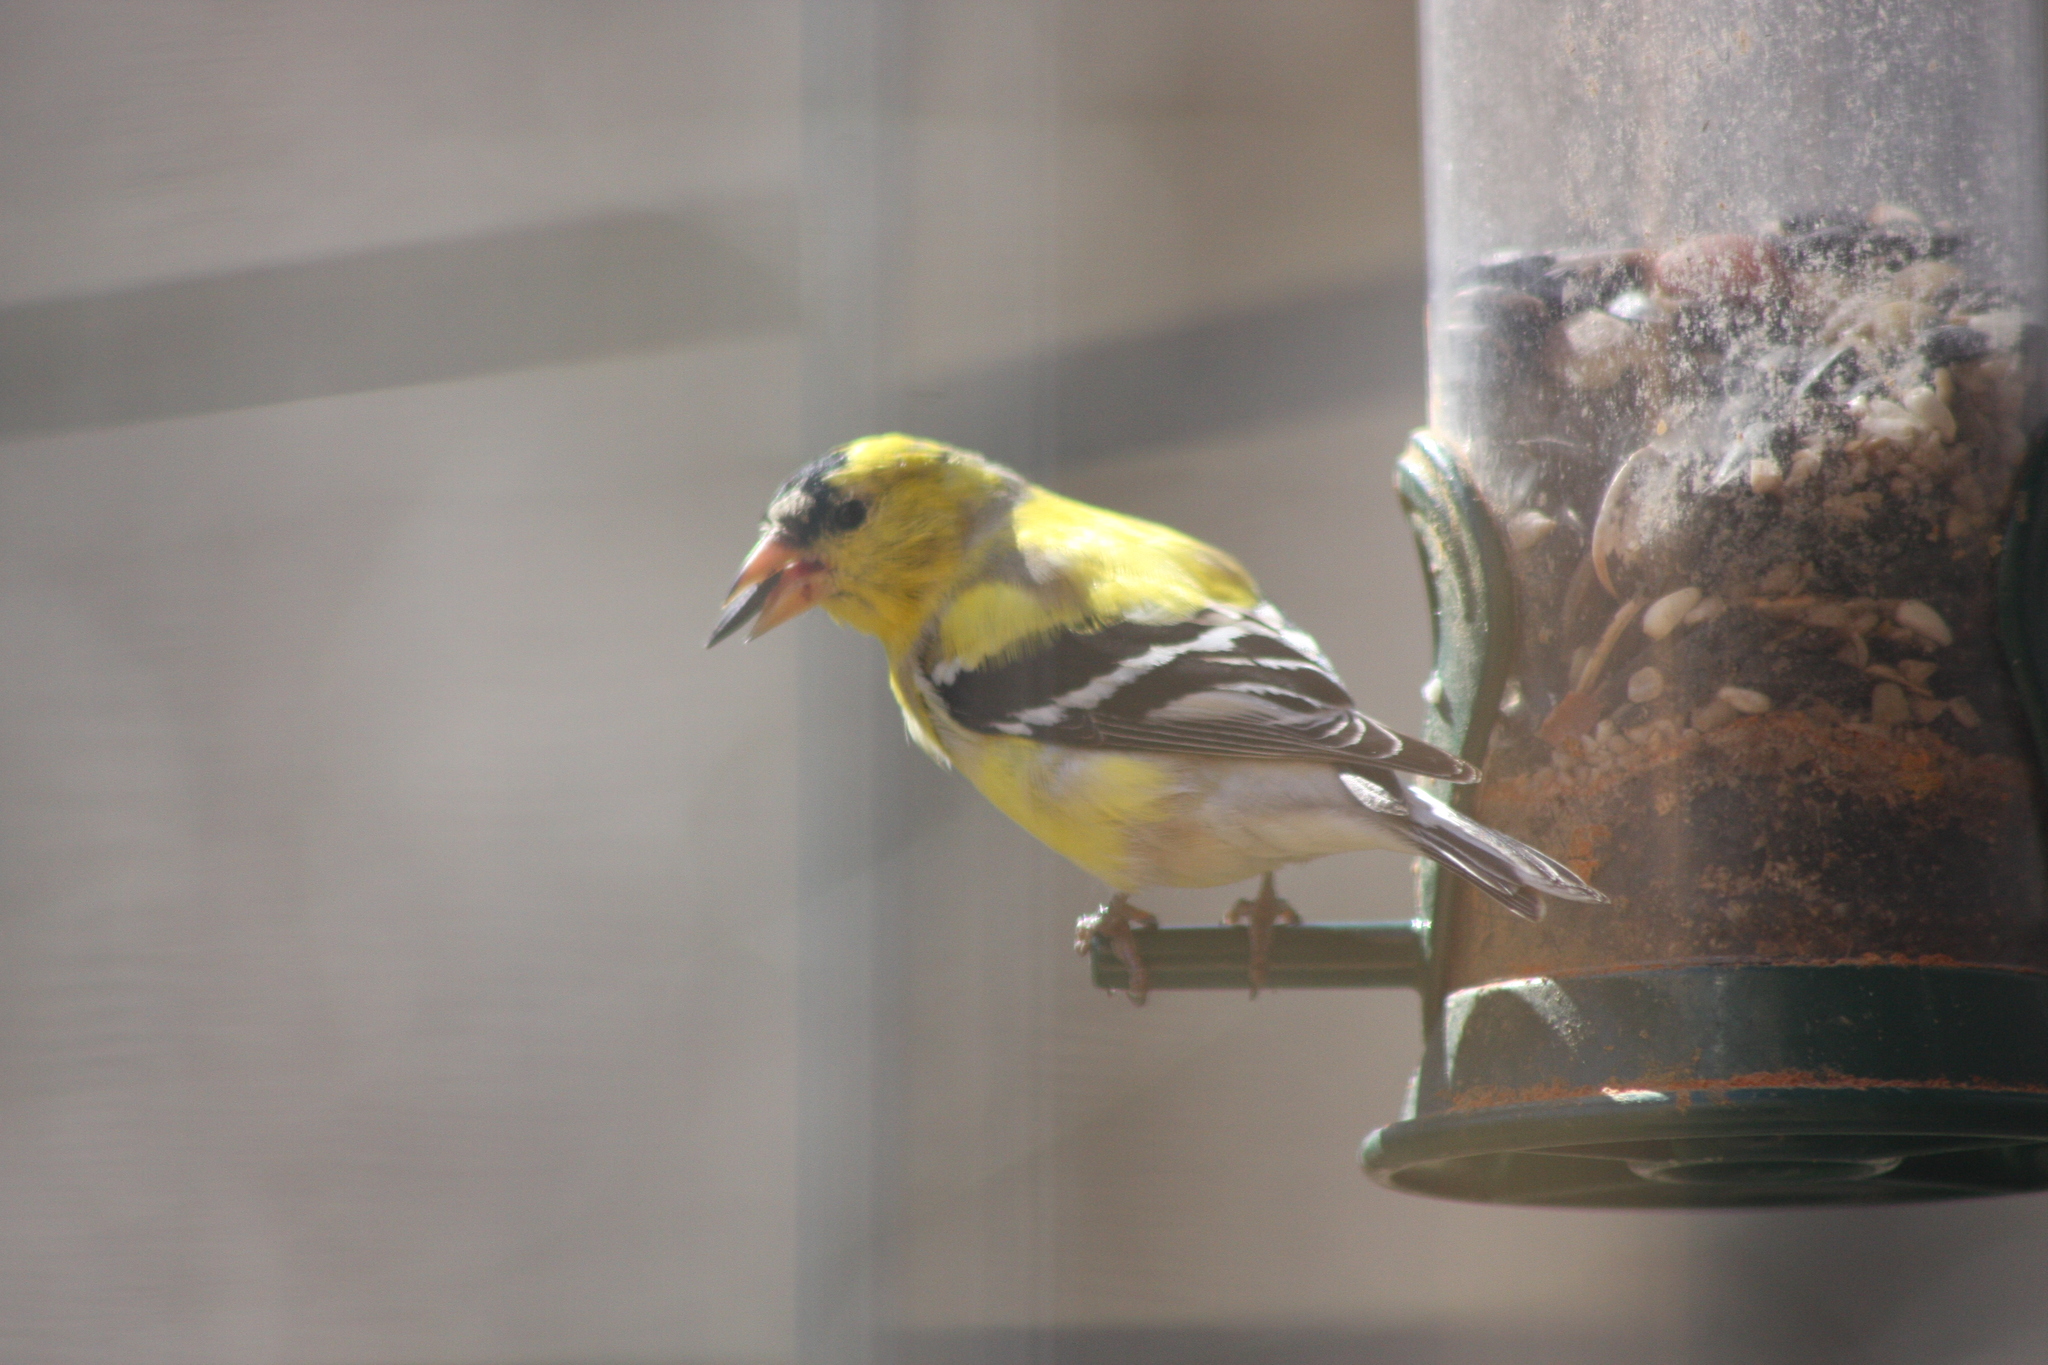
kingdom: Animalia
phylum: Chordata
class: Aves
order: Passeriformes
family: Fringillidae
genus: Spinus
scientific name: Spinus tristis
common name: American goldfinch
